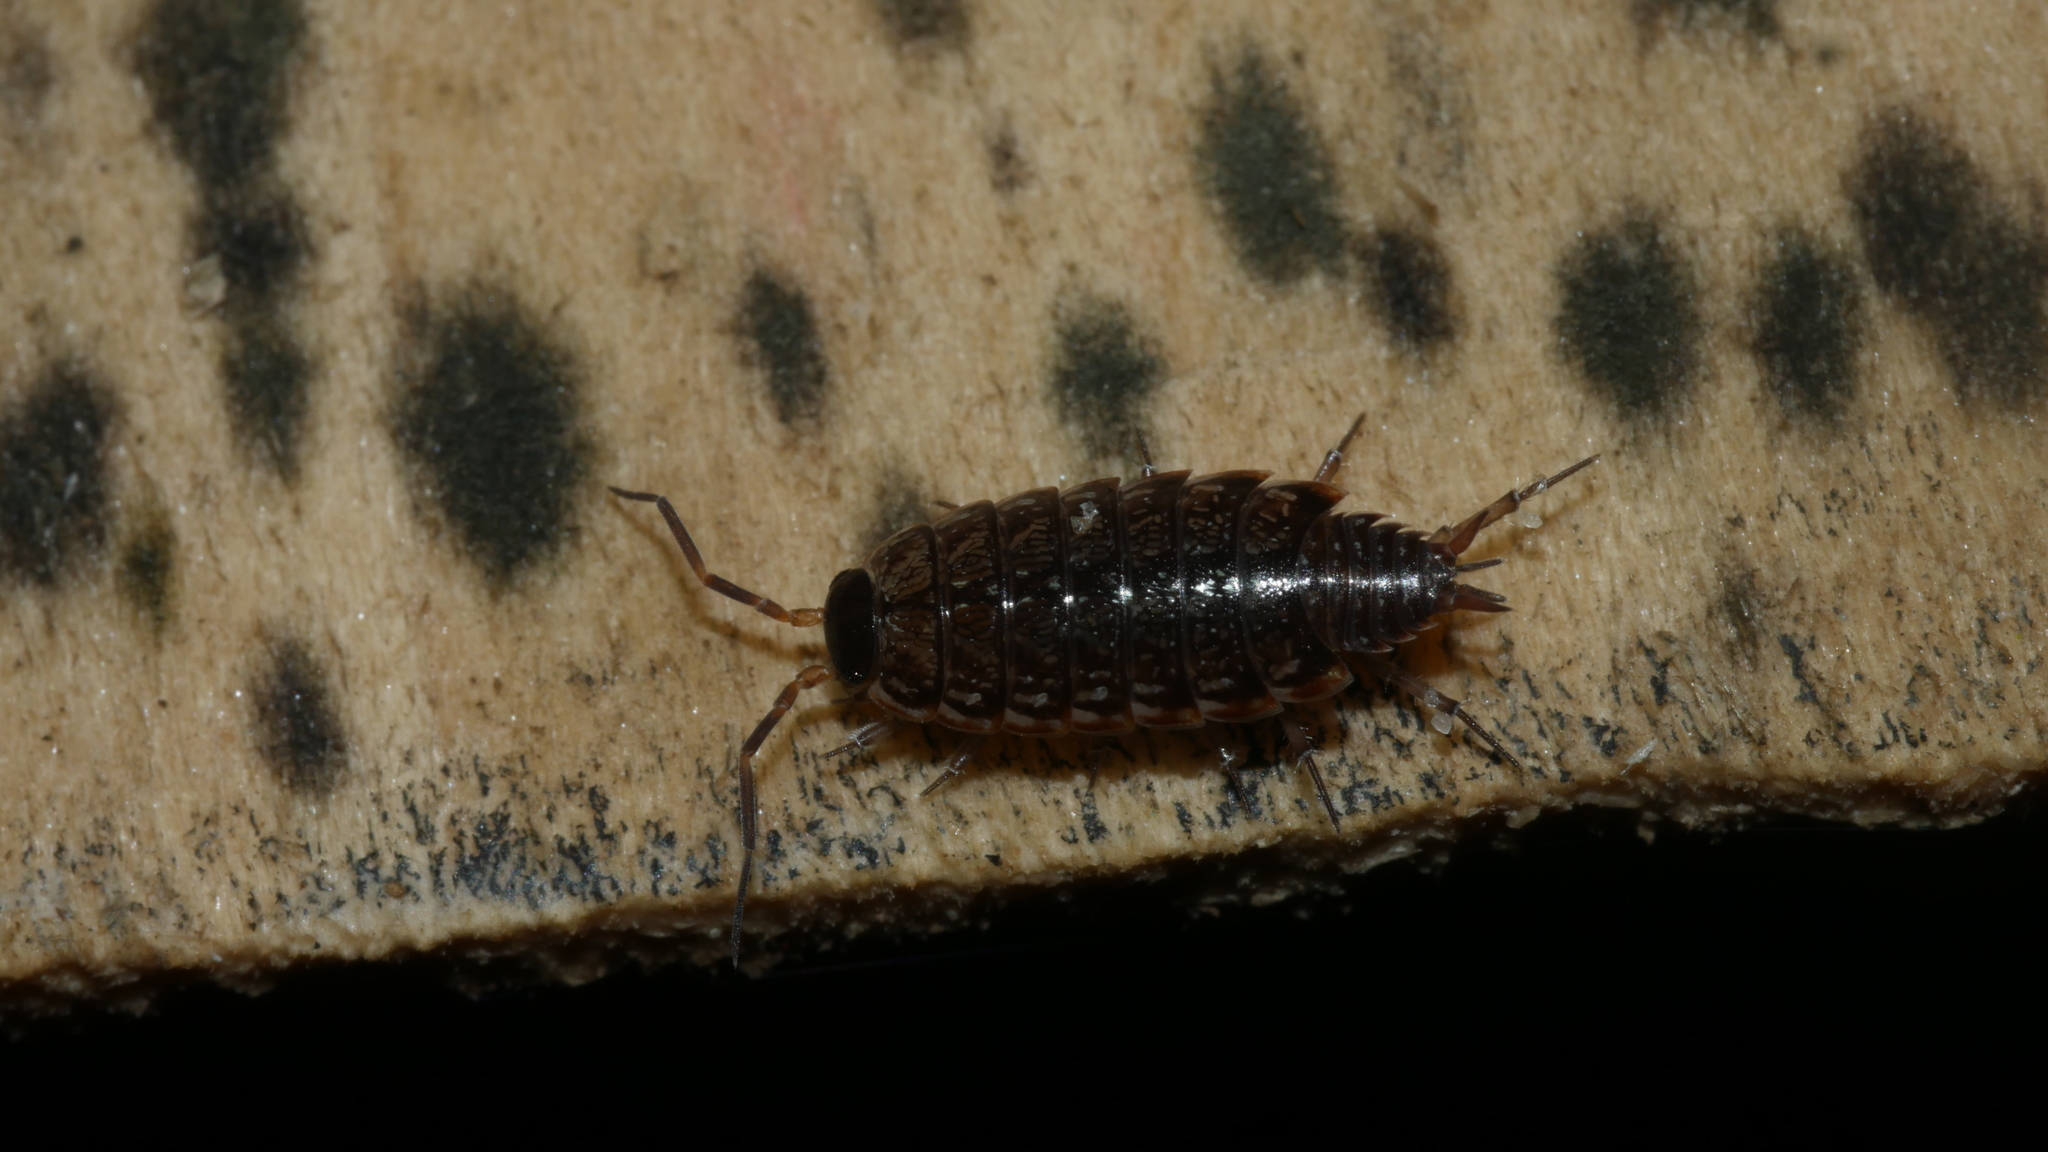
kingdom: Animalia
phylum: Arthropoda
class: Malacostraca
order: Isopoda
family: Philosciidae
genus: Philoscia
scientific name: Philoscia muscorum
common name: Common striped woodlouse
